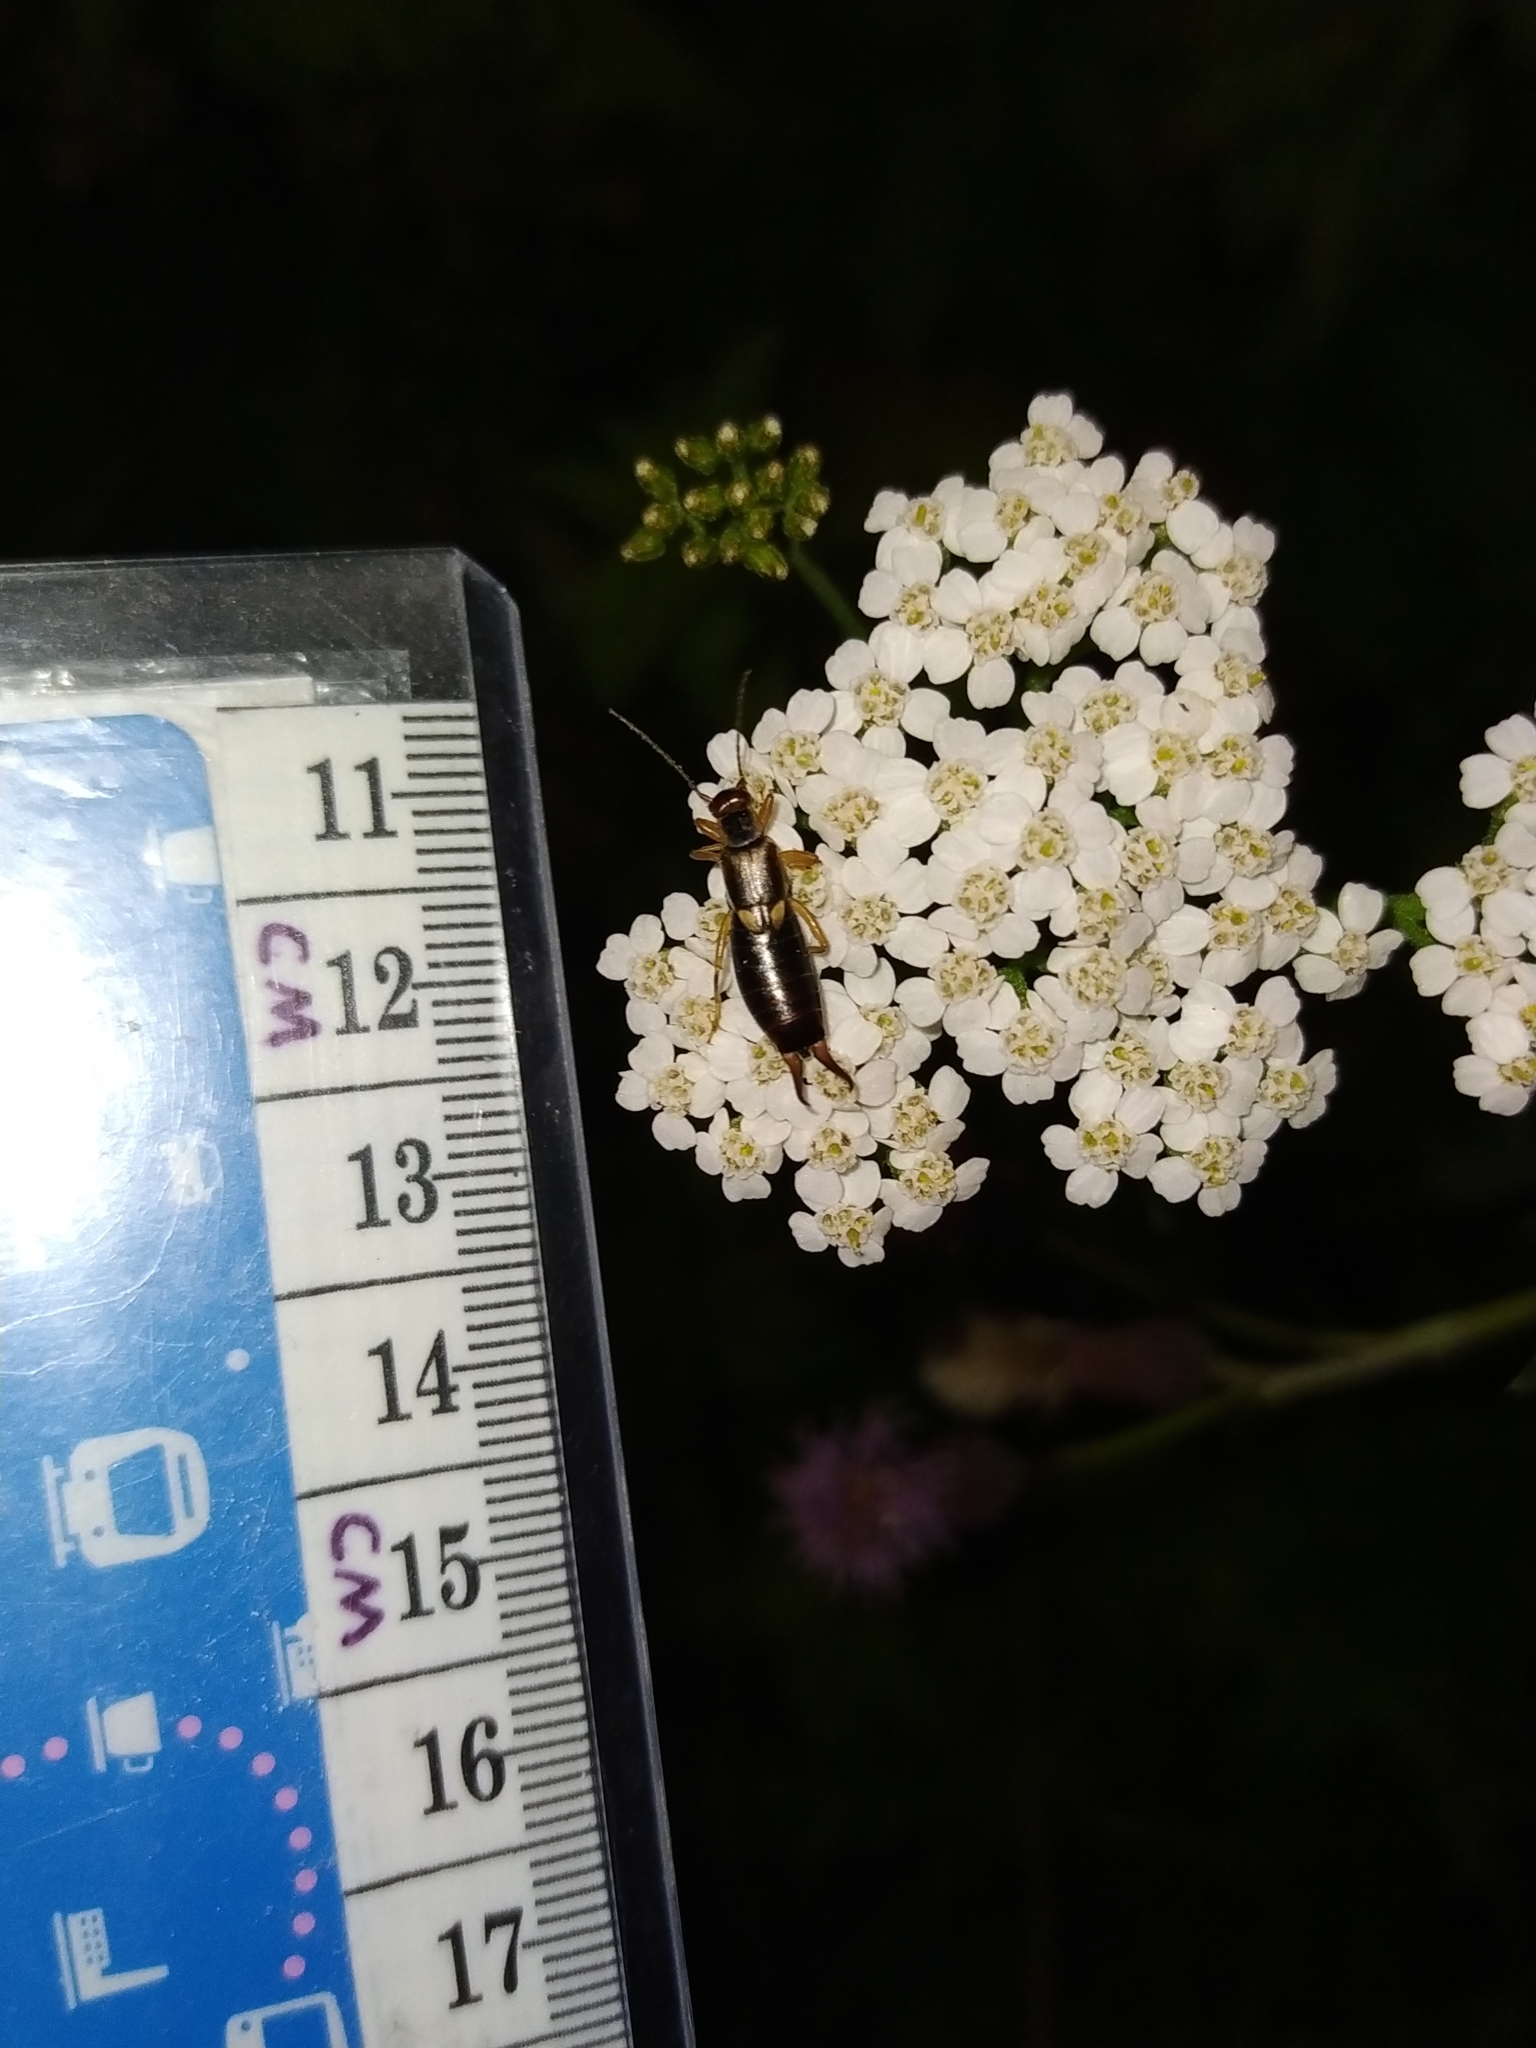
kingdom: Animalia
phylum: Arthropoda
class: Insecta
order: Dermaptera
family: Forficulidae
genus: Forficula
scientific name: Forficula
